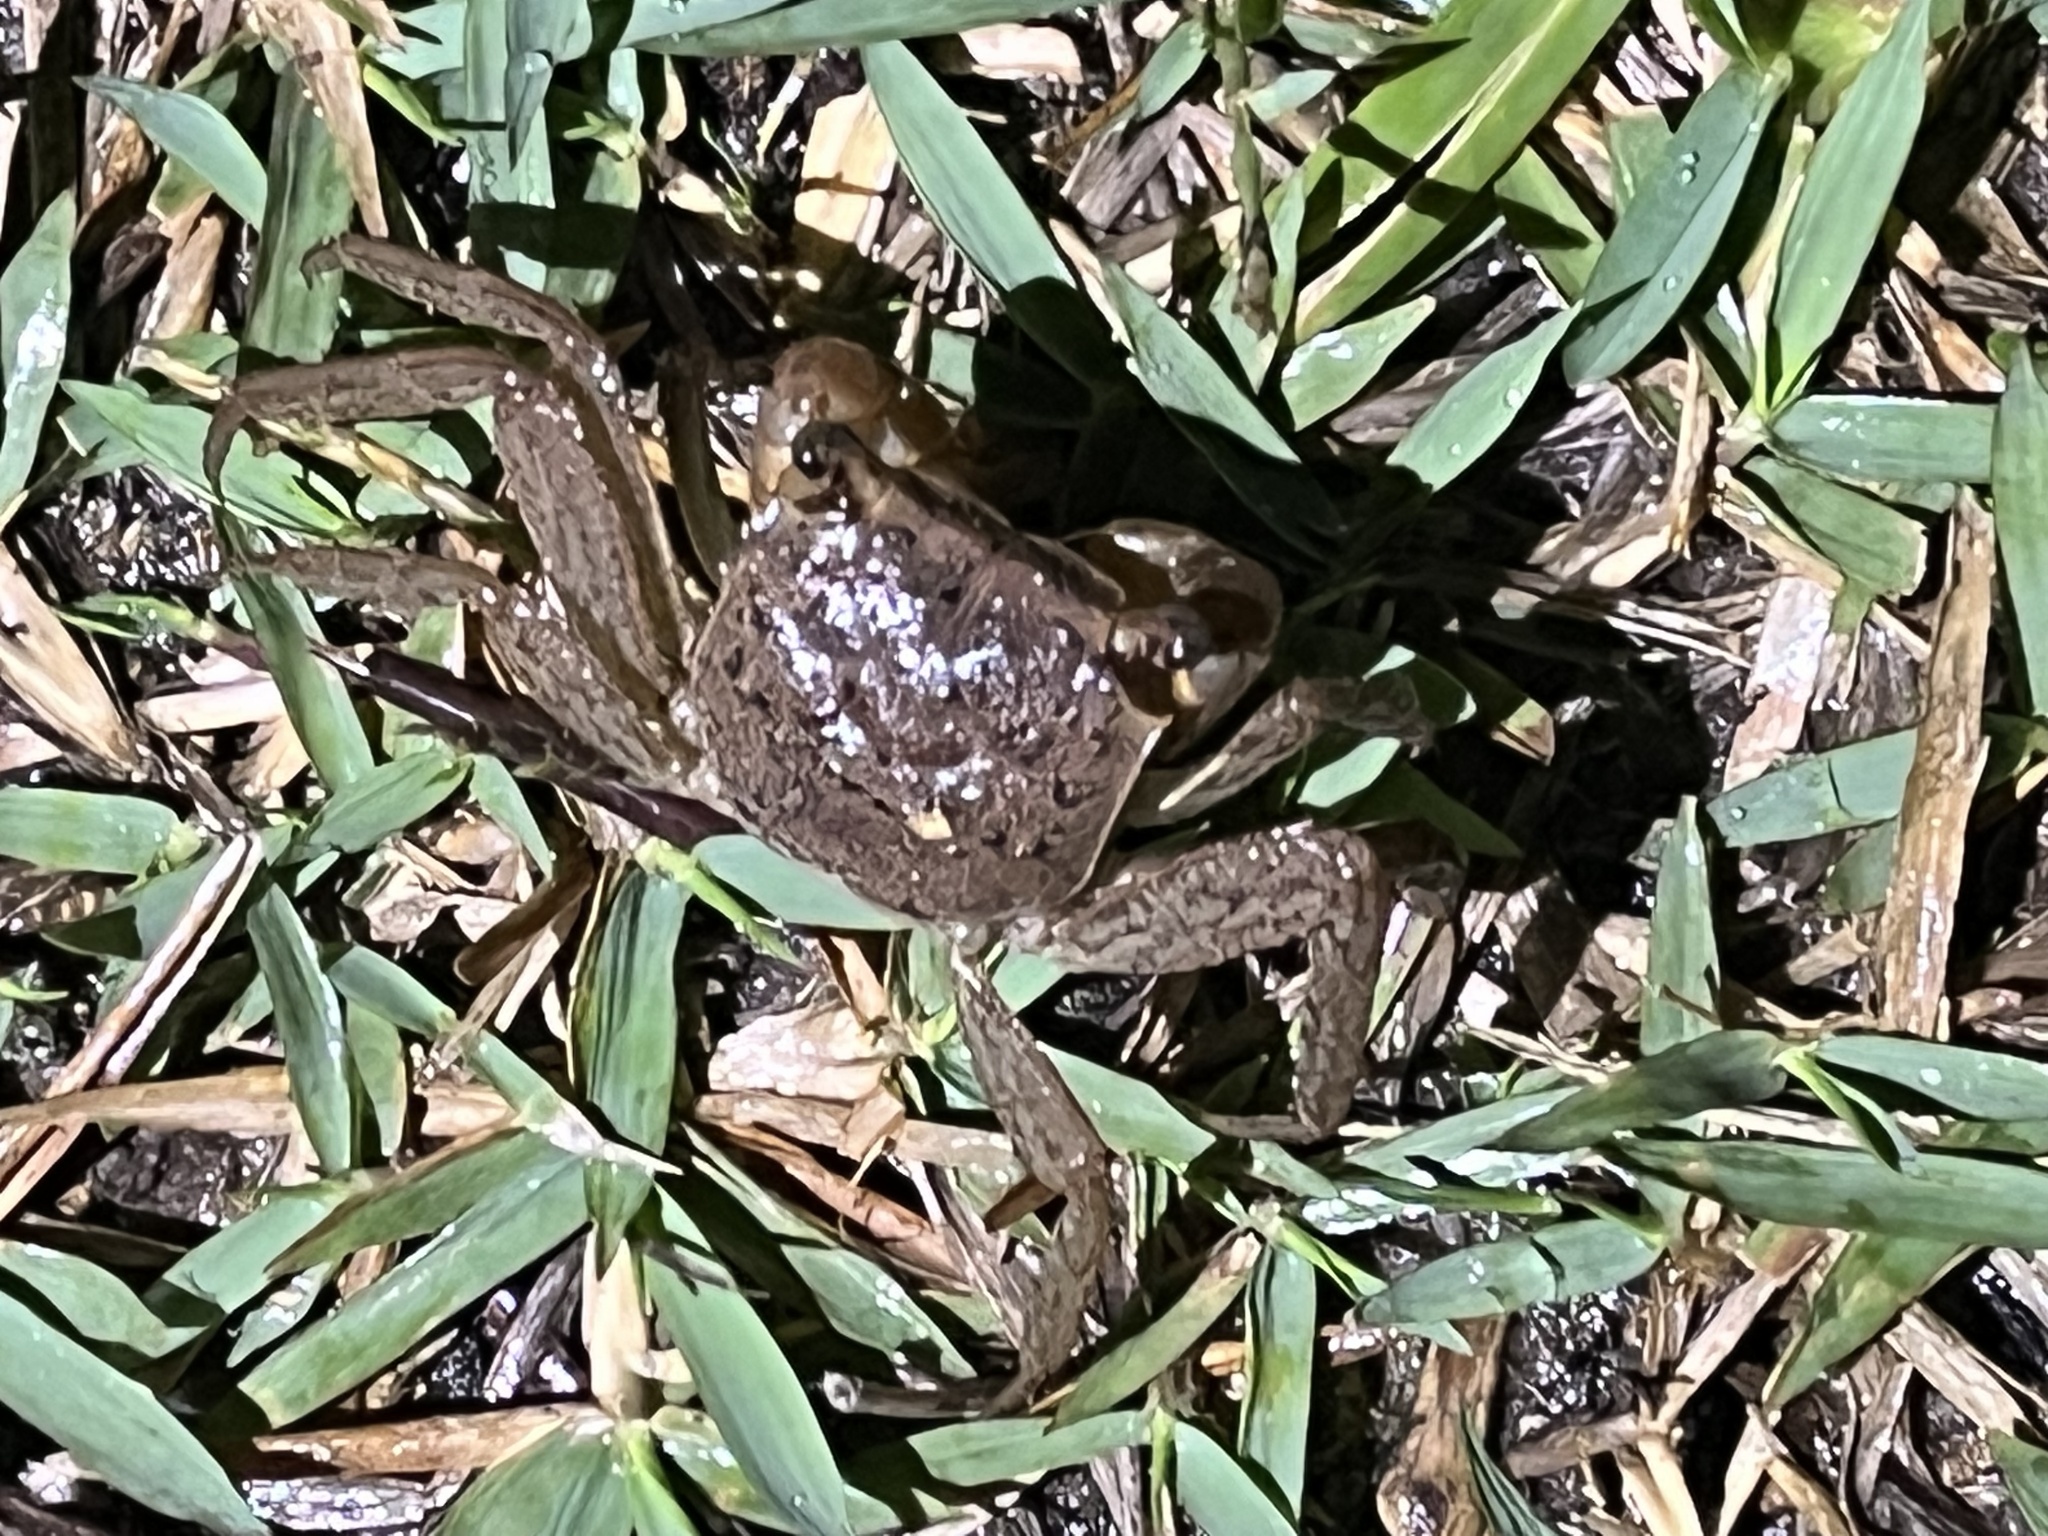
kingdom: Animalia
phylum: Arthropoda
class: Malacostraca
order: Decapoda
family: Sesarmidae
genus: Armases
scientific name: Armases cinereum
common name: Squareback marsh crab
